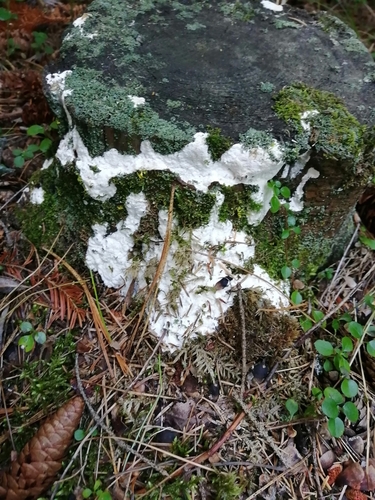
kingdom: Fungi
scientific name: Fungi
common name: Fungi
